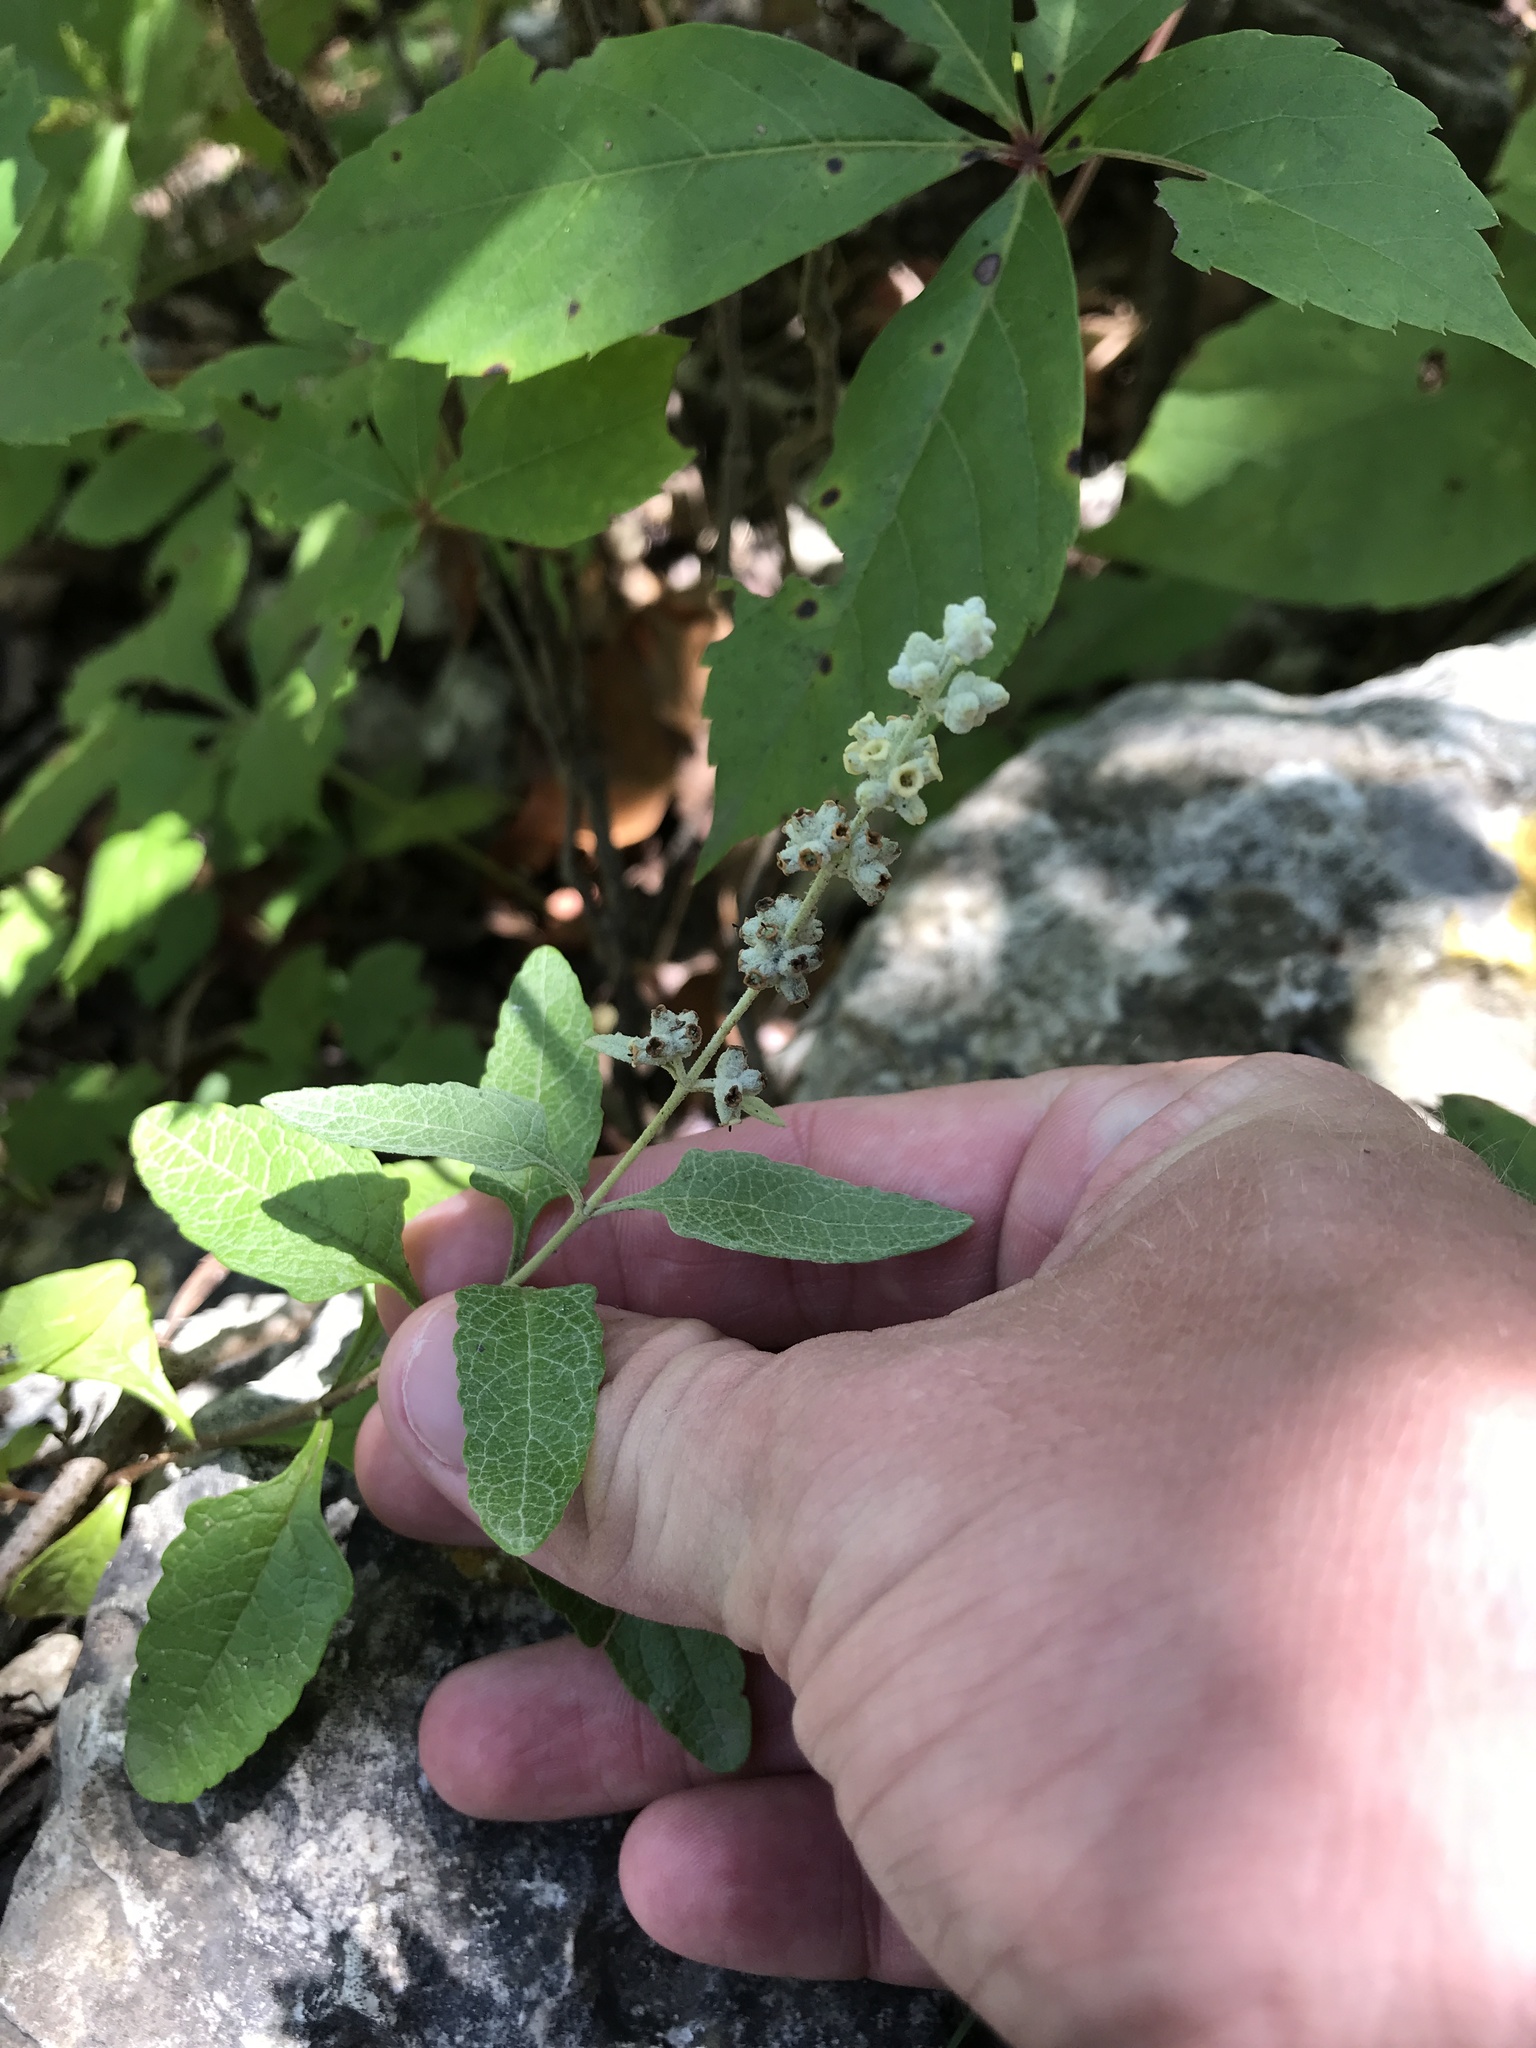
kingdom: Plantae
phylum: Tracheophyta
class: Magnoliopsida
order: Lamiales
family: Scrophulariaceae
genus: Buddleja
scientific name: Buddleja racemosa
